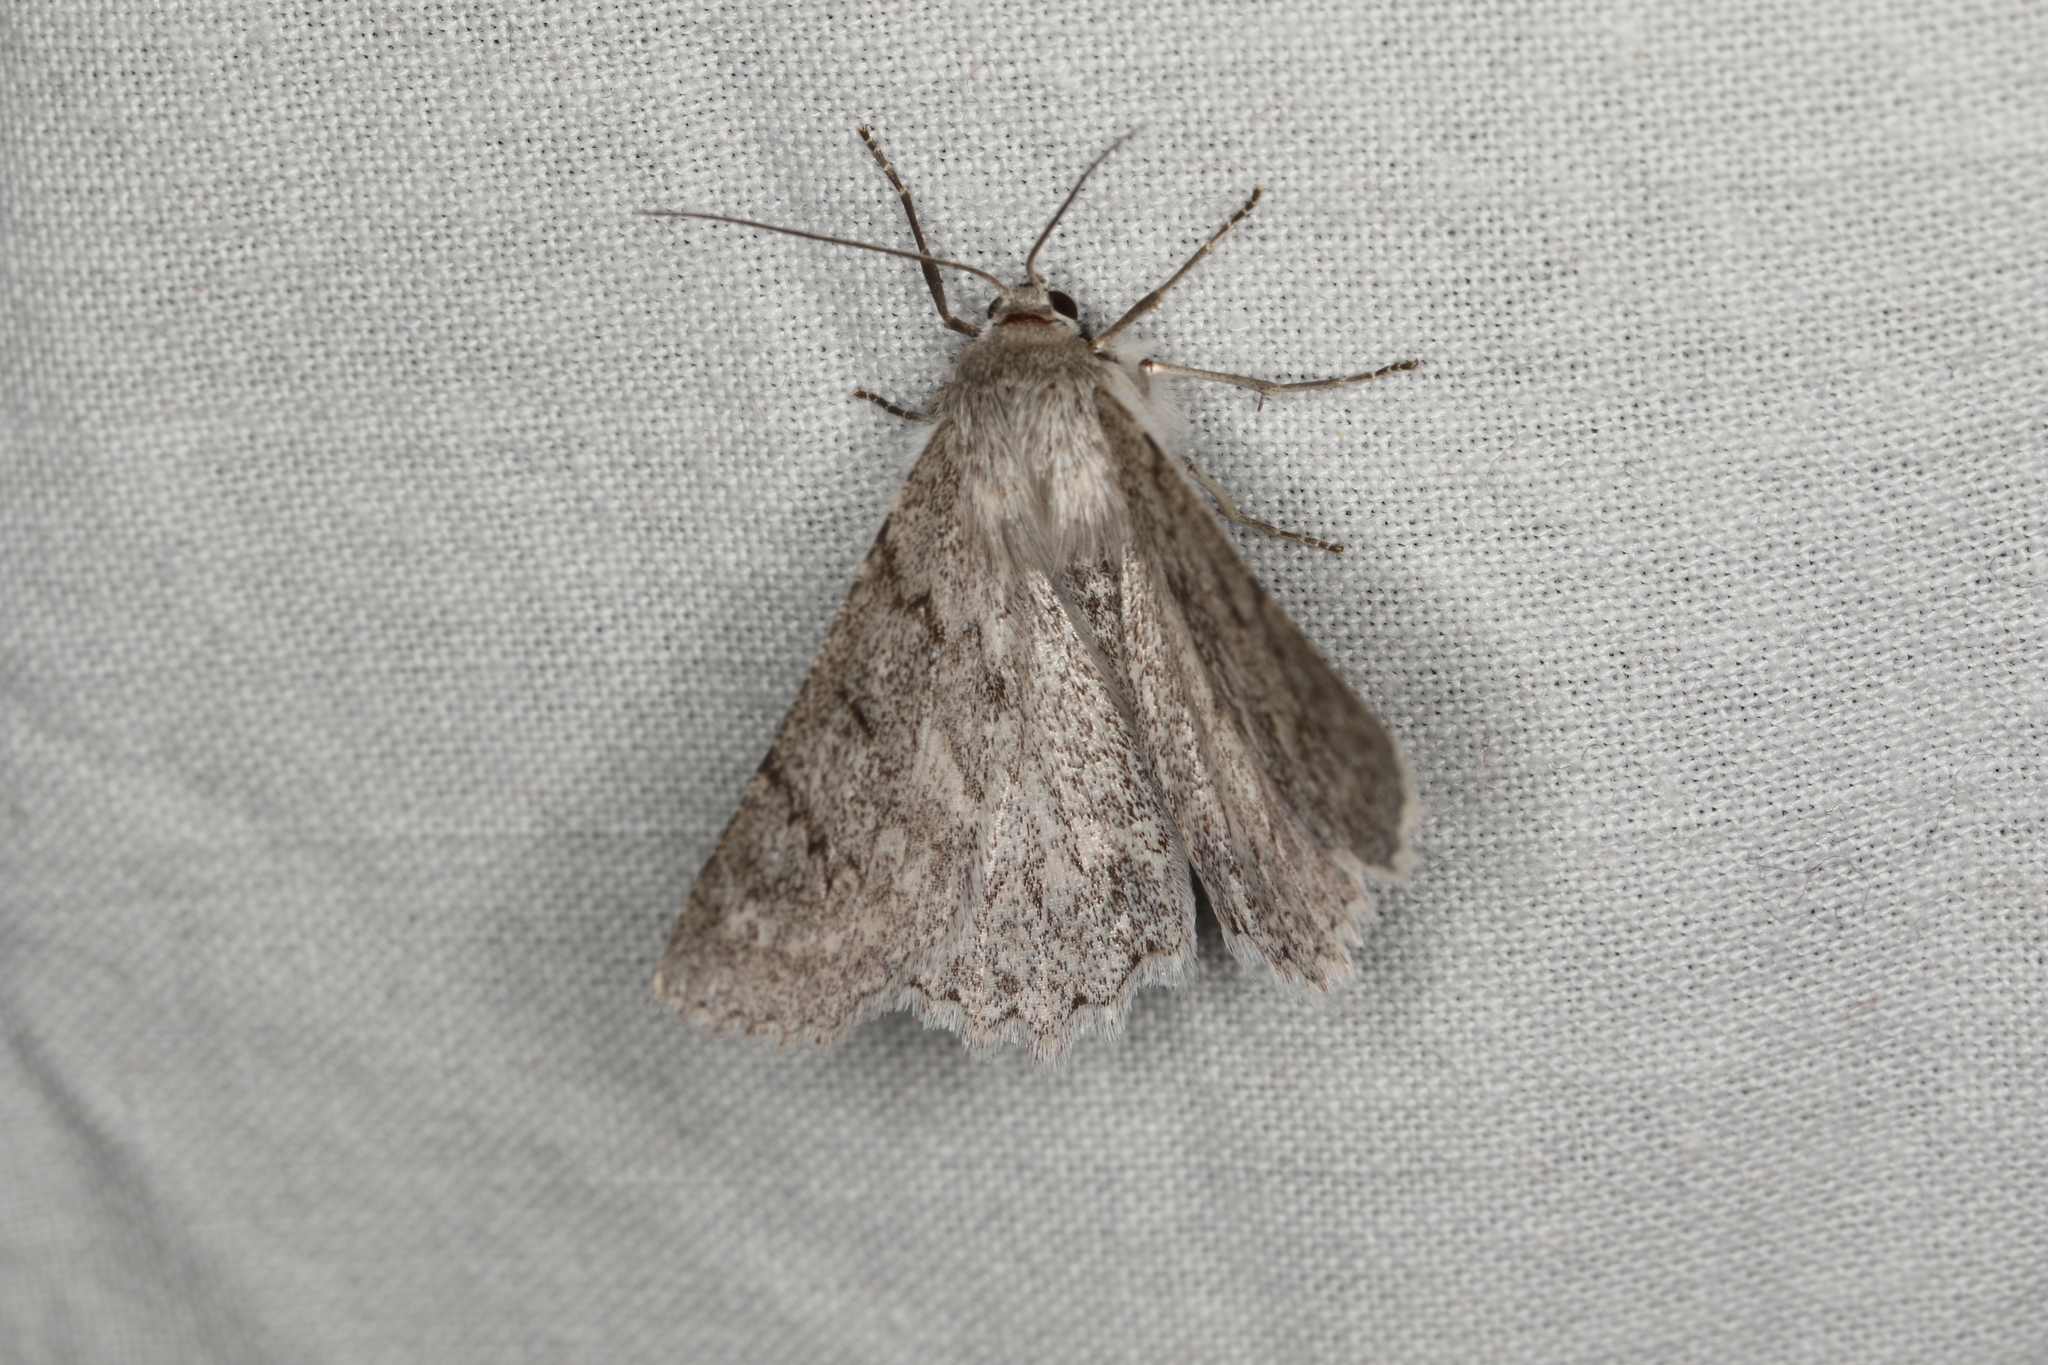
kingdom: Animalia
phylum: Arthropoda
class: Insecta
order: Lepidoptera
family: Geometridae
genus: Crypsiphona
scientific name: Crypsiphona ocultaria
